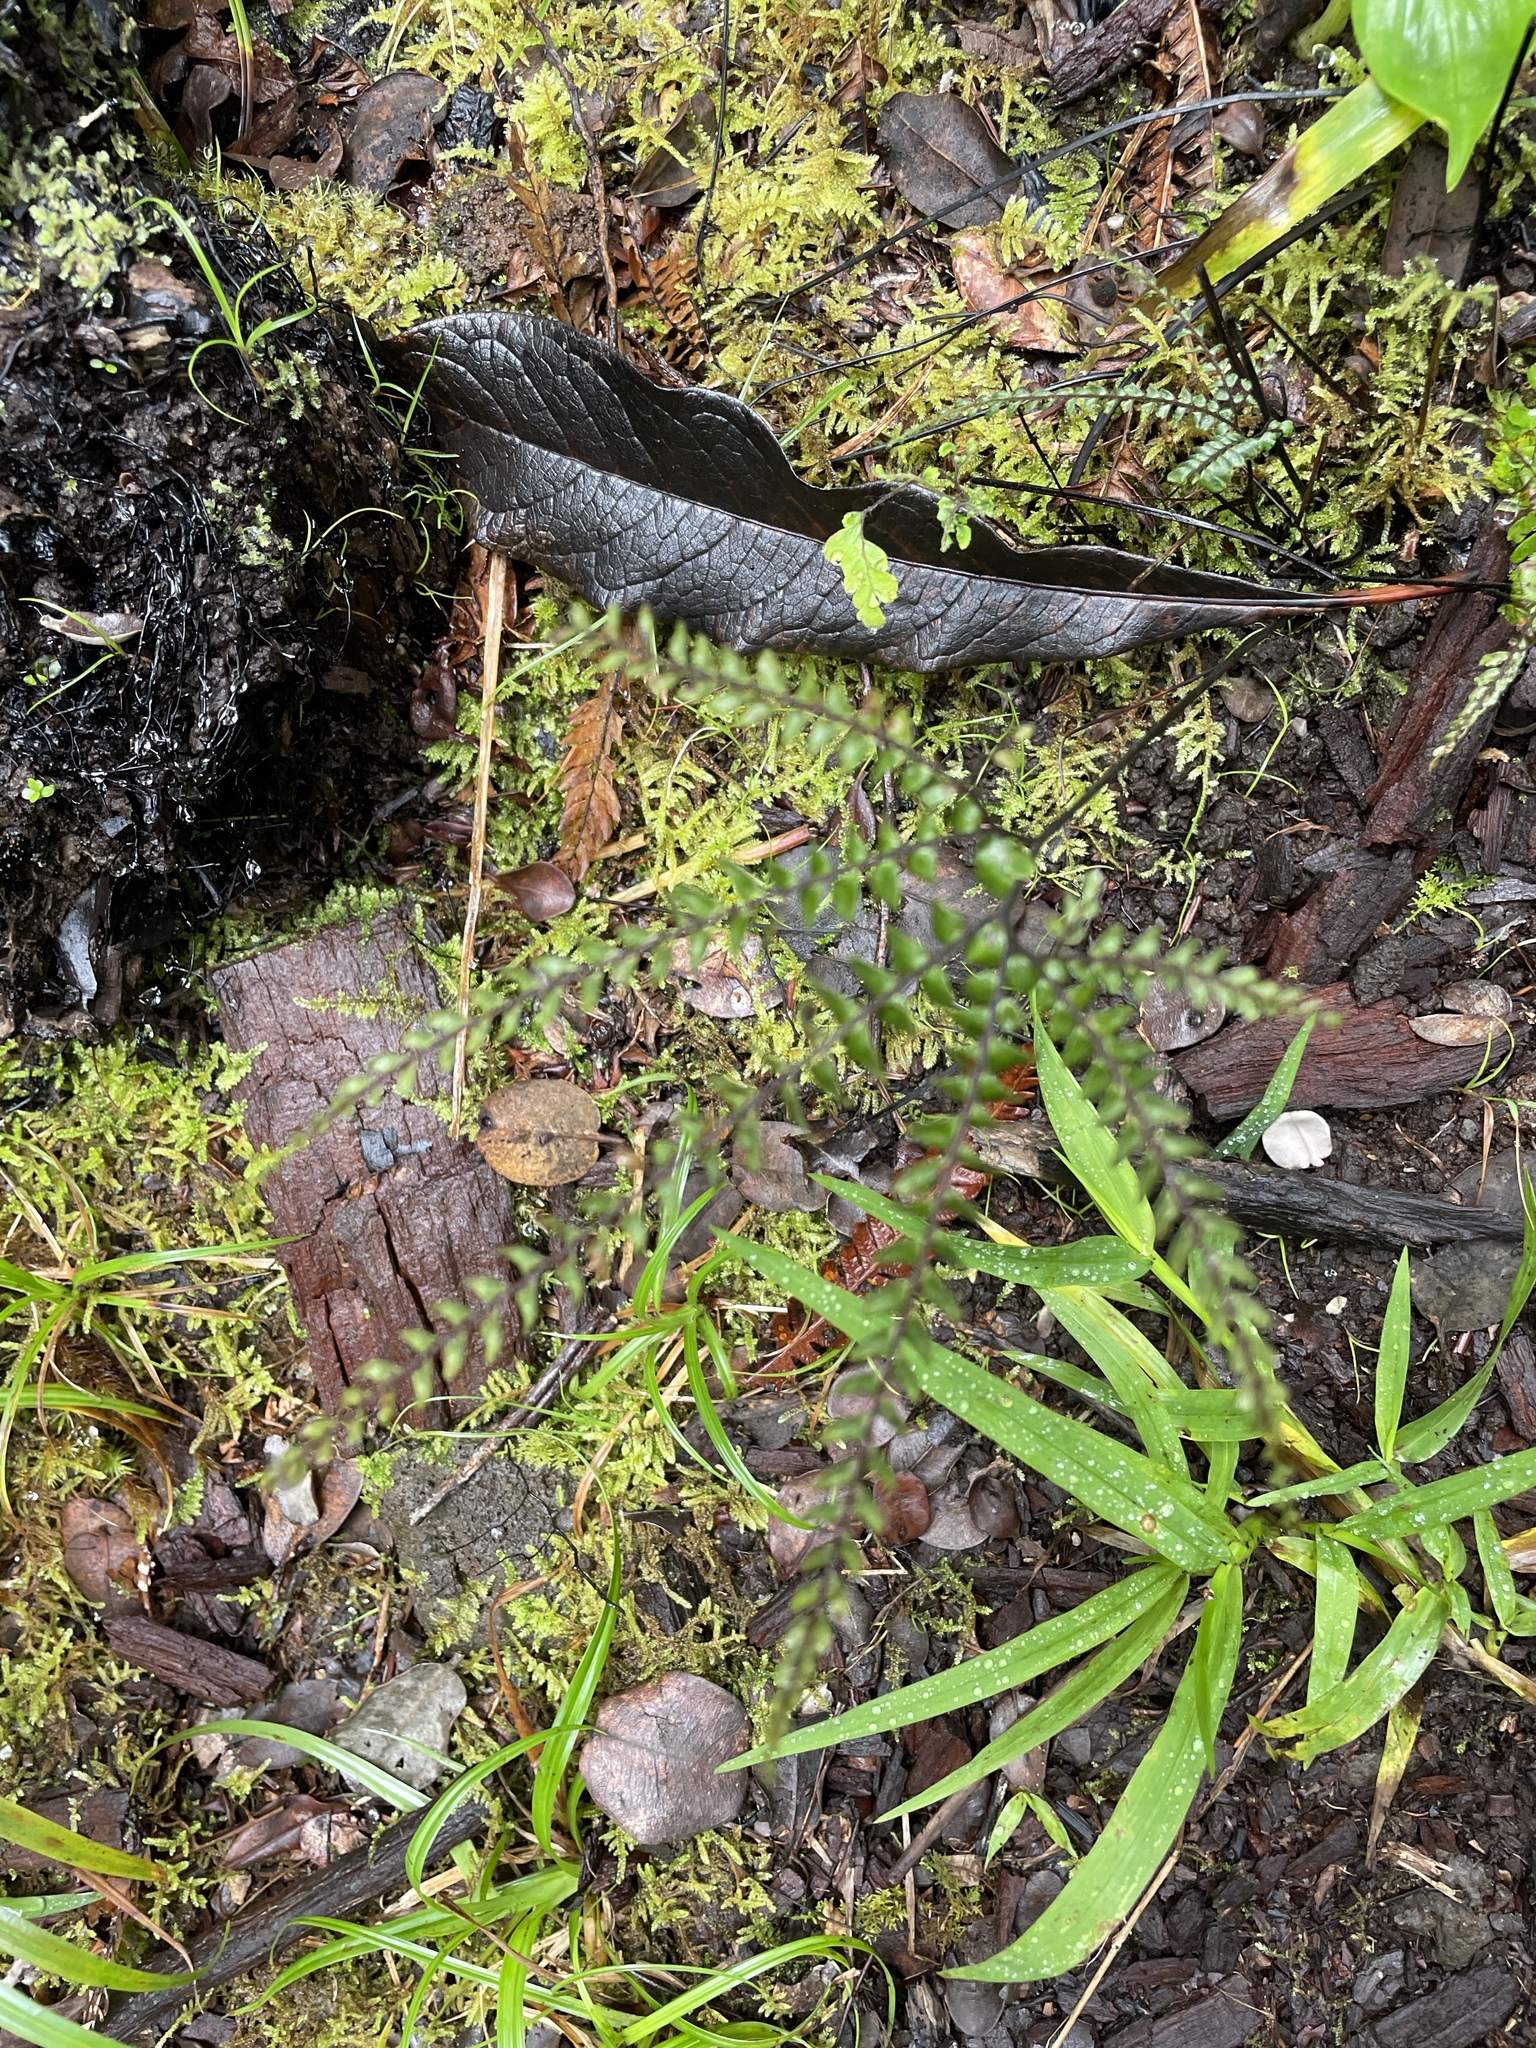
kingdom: Plantae
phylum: Tracheophyta
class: Polypodiopsida
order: Polypodiales
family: Pteridaceae
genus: Adiantum
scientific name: Adiantum hispidulum
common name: Rough maidenhair
